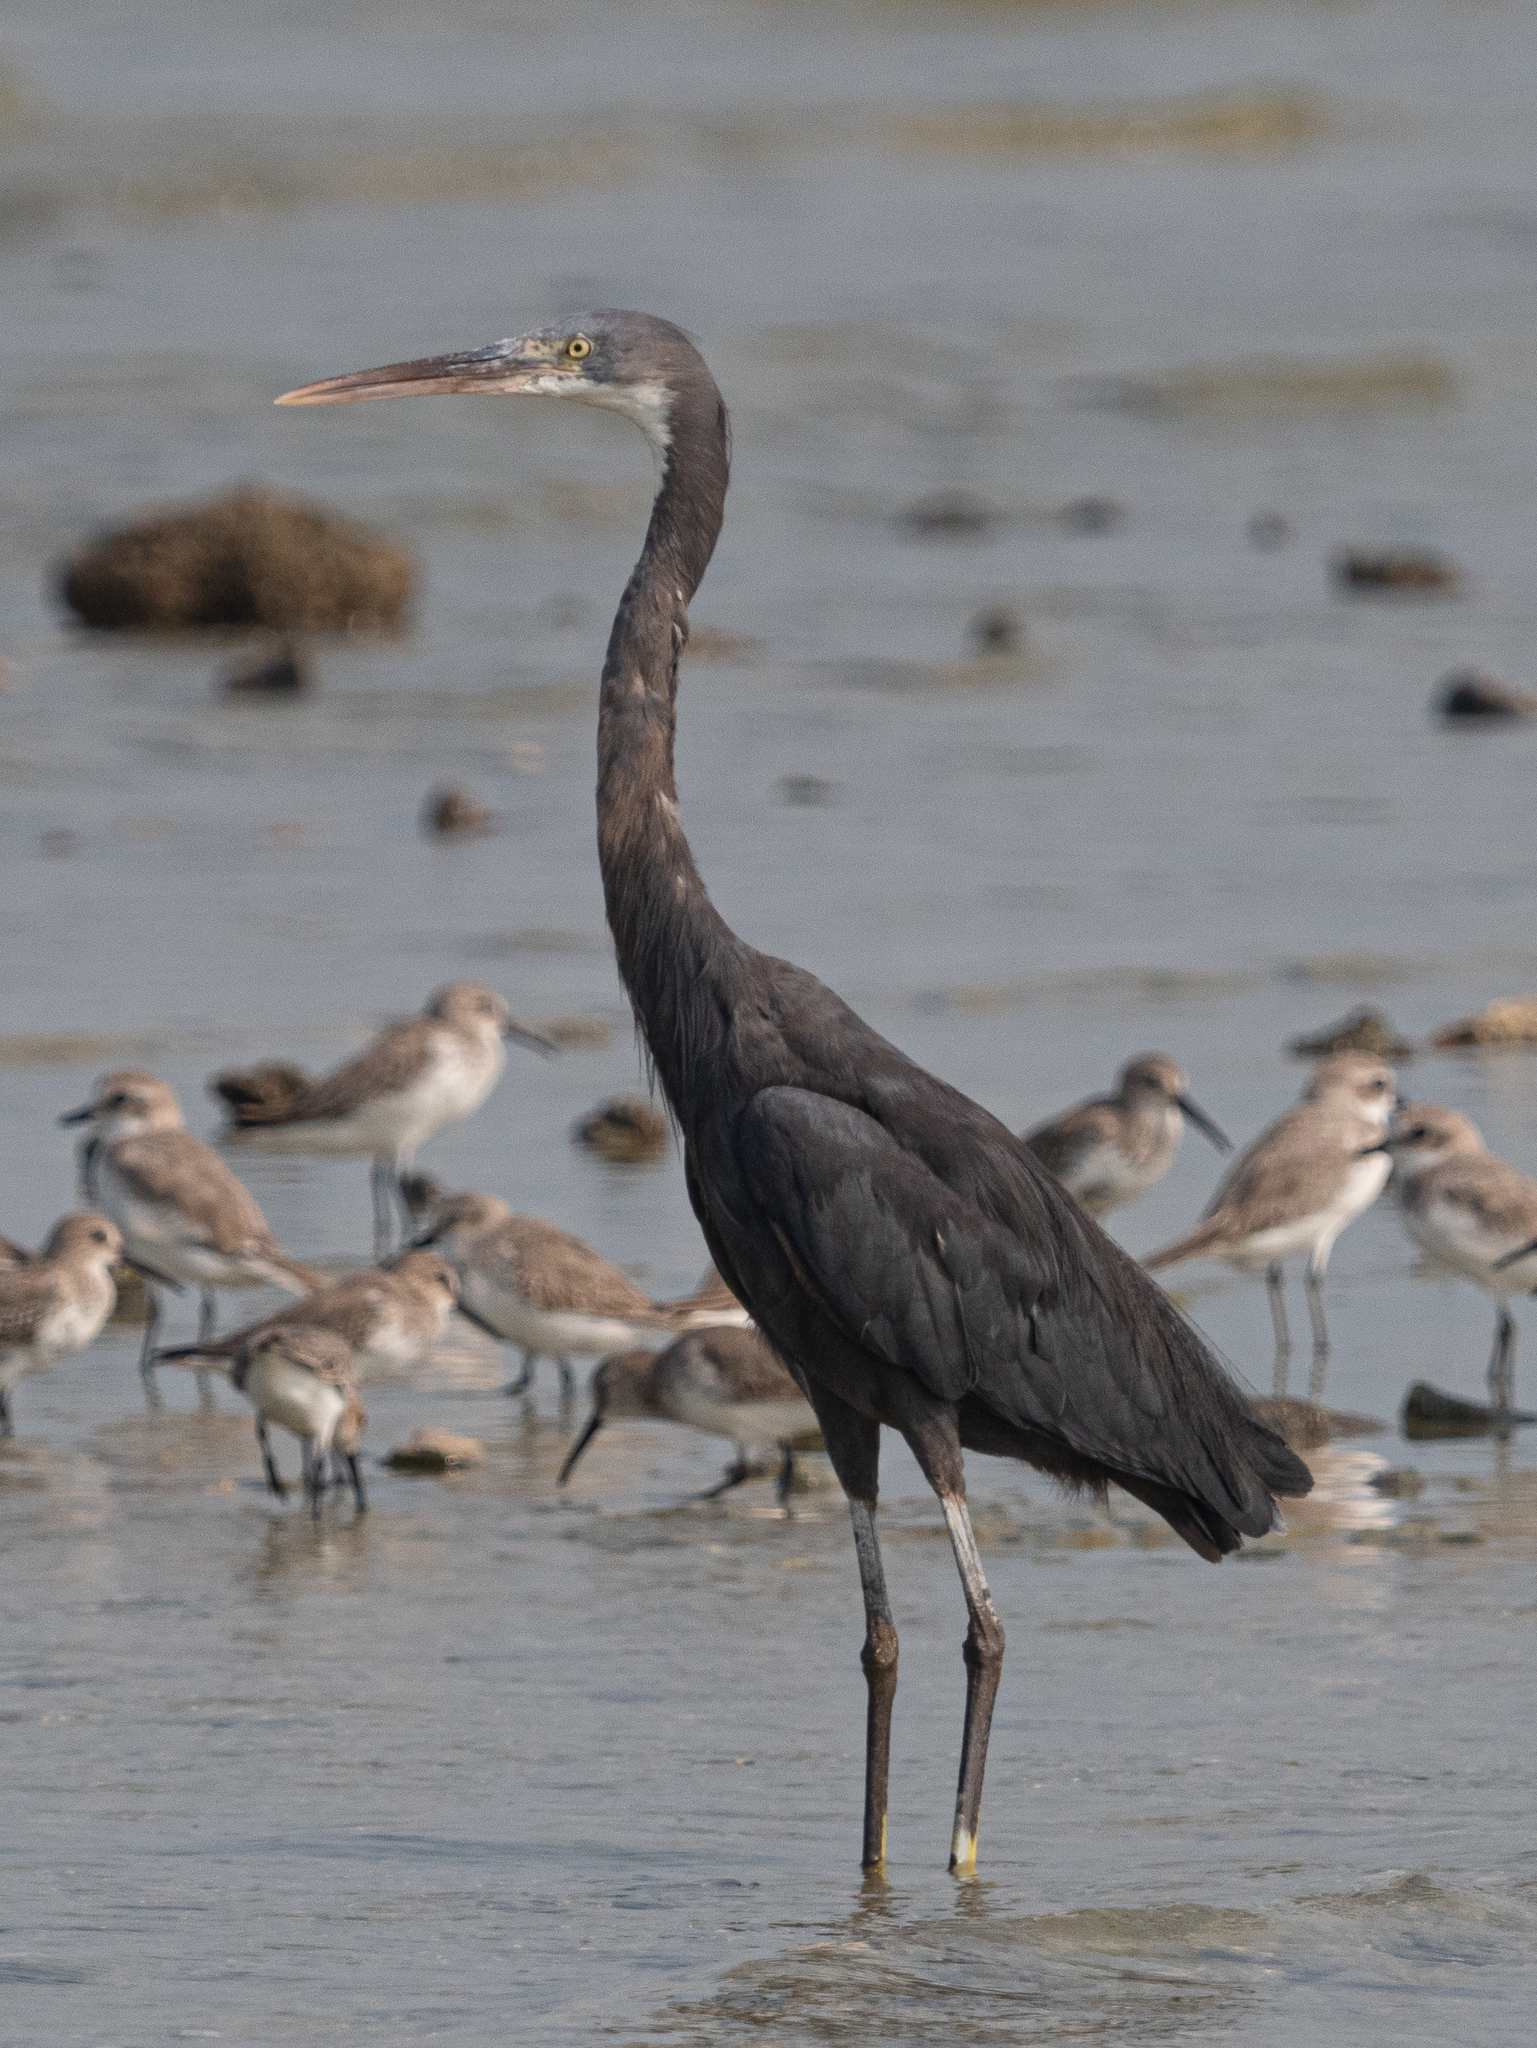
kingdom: Animalia
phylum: Chordata
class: Aves
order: Pelecaniformes
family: Ardeidae
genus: Egretta
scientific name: Egretta gularis
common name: Western reef-heron
